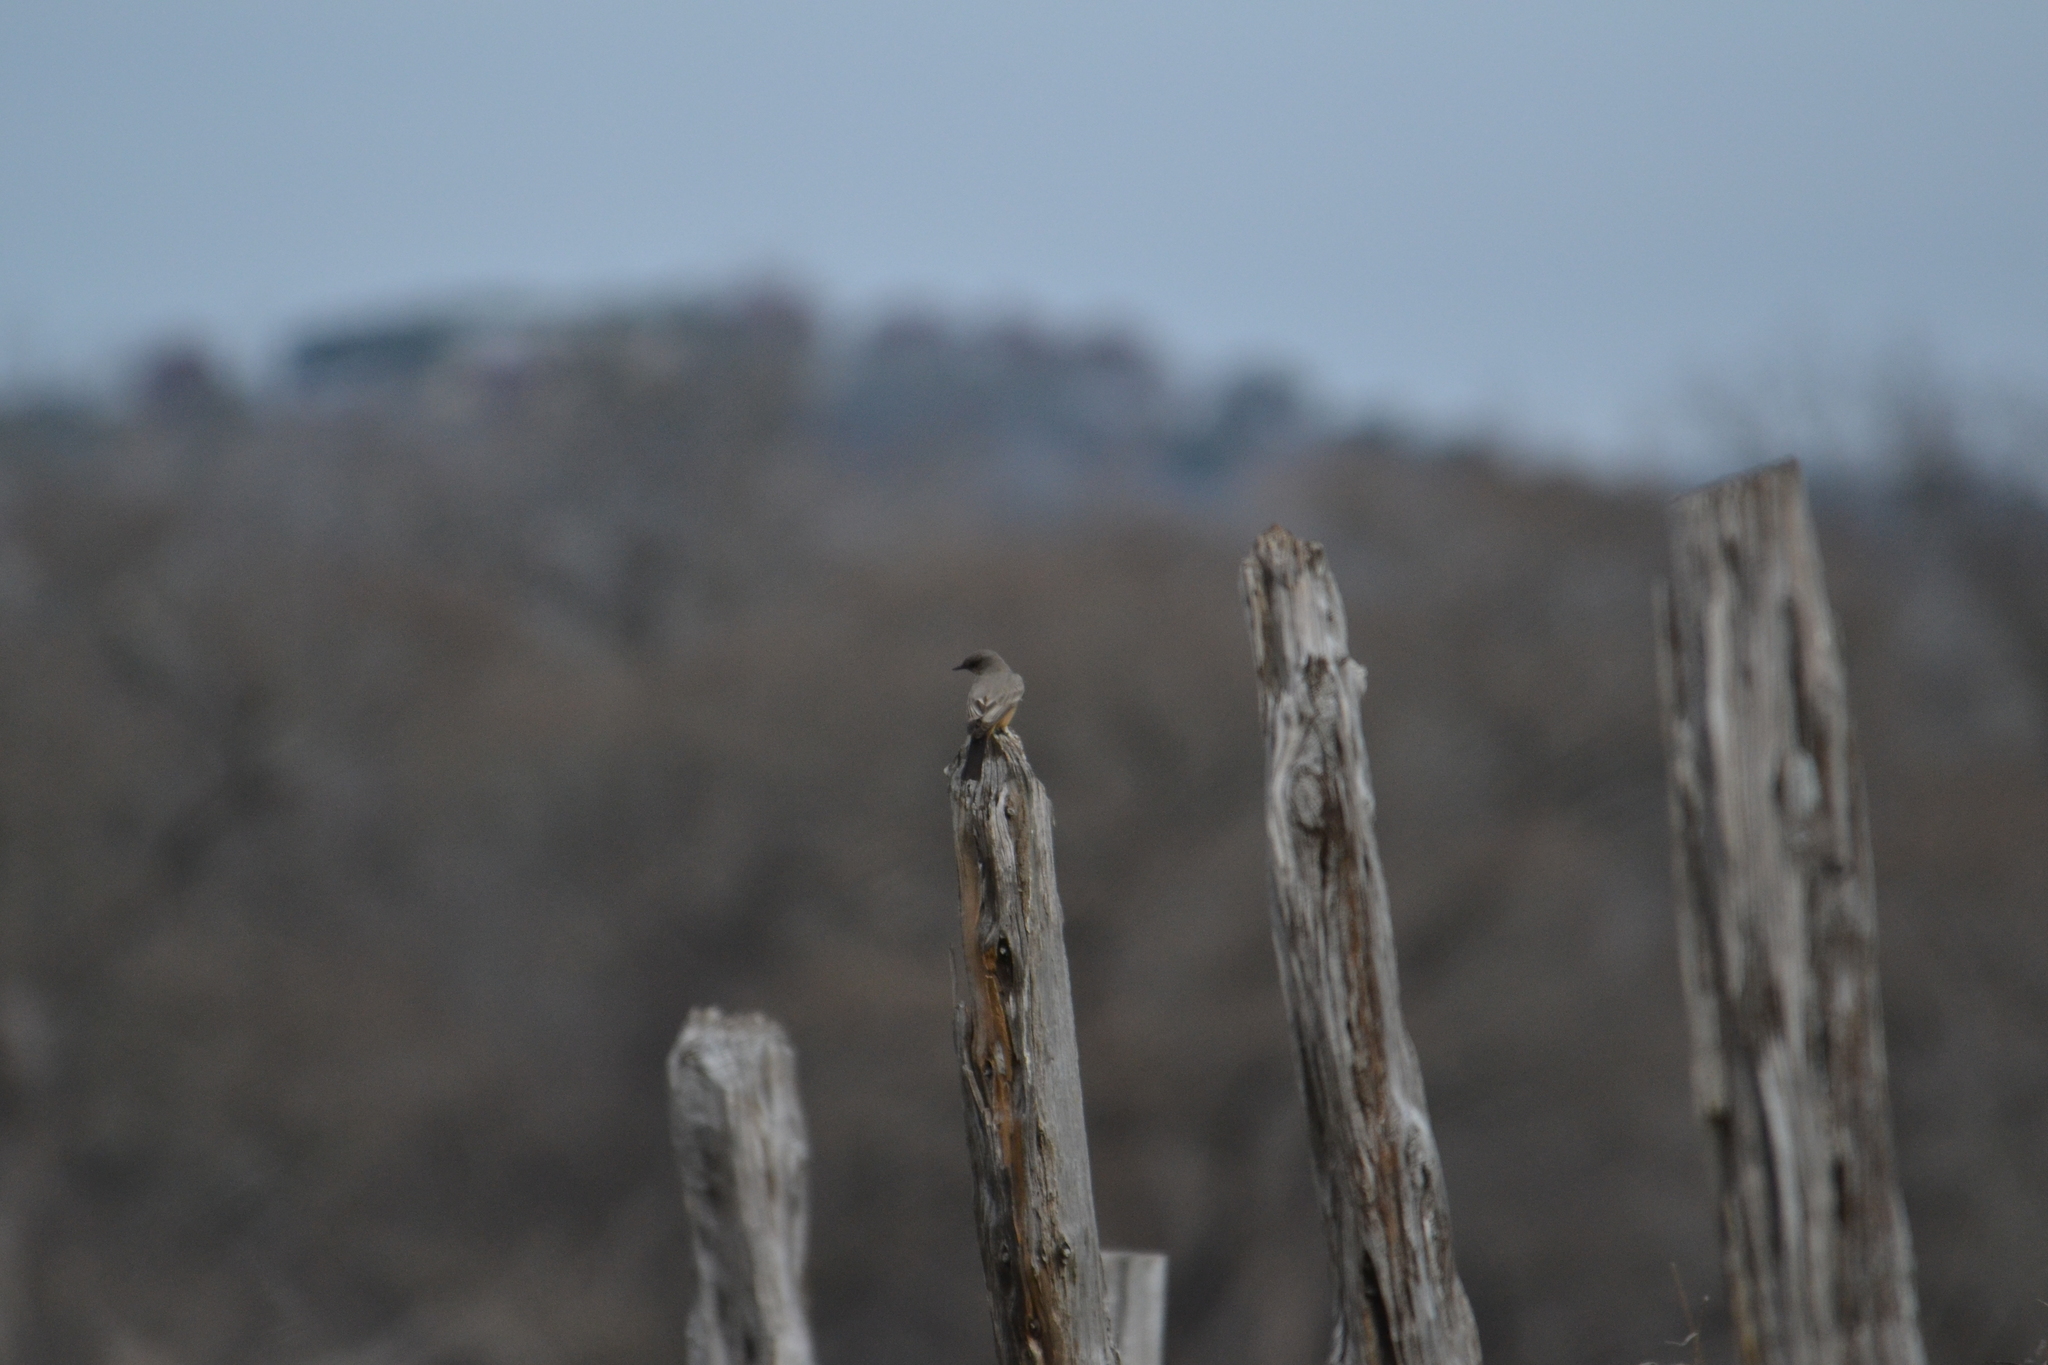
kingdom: Animalia
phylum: Chordata
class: Aves
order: Passeriformes
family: Tyrannidae
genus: Sayornis
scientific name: Sayornis saya
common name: Say's phoebe
